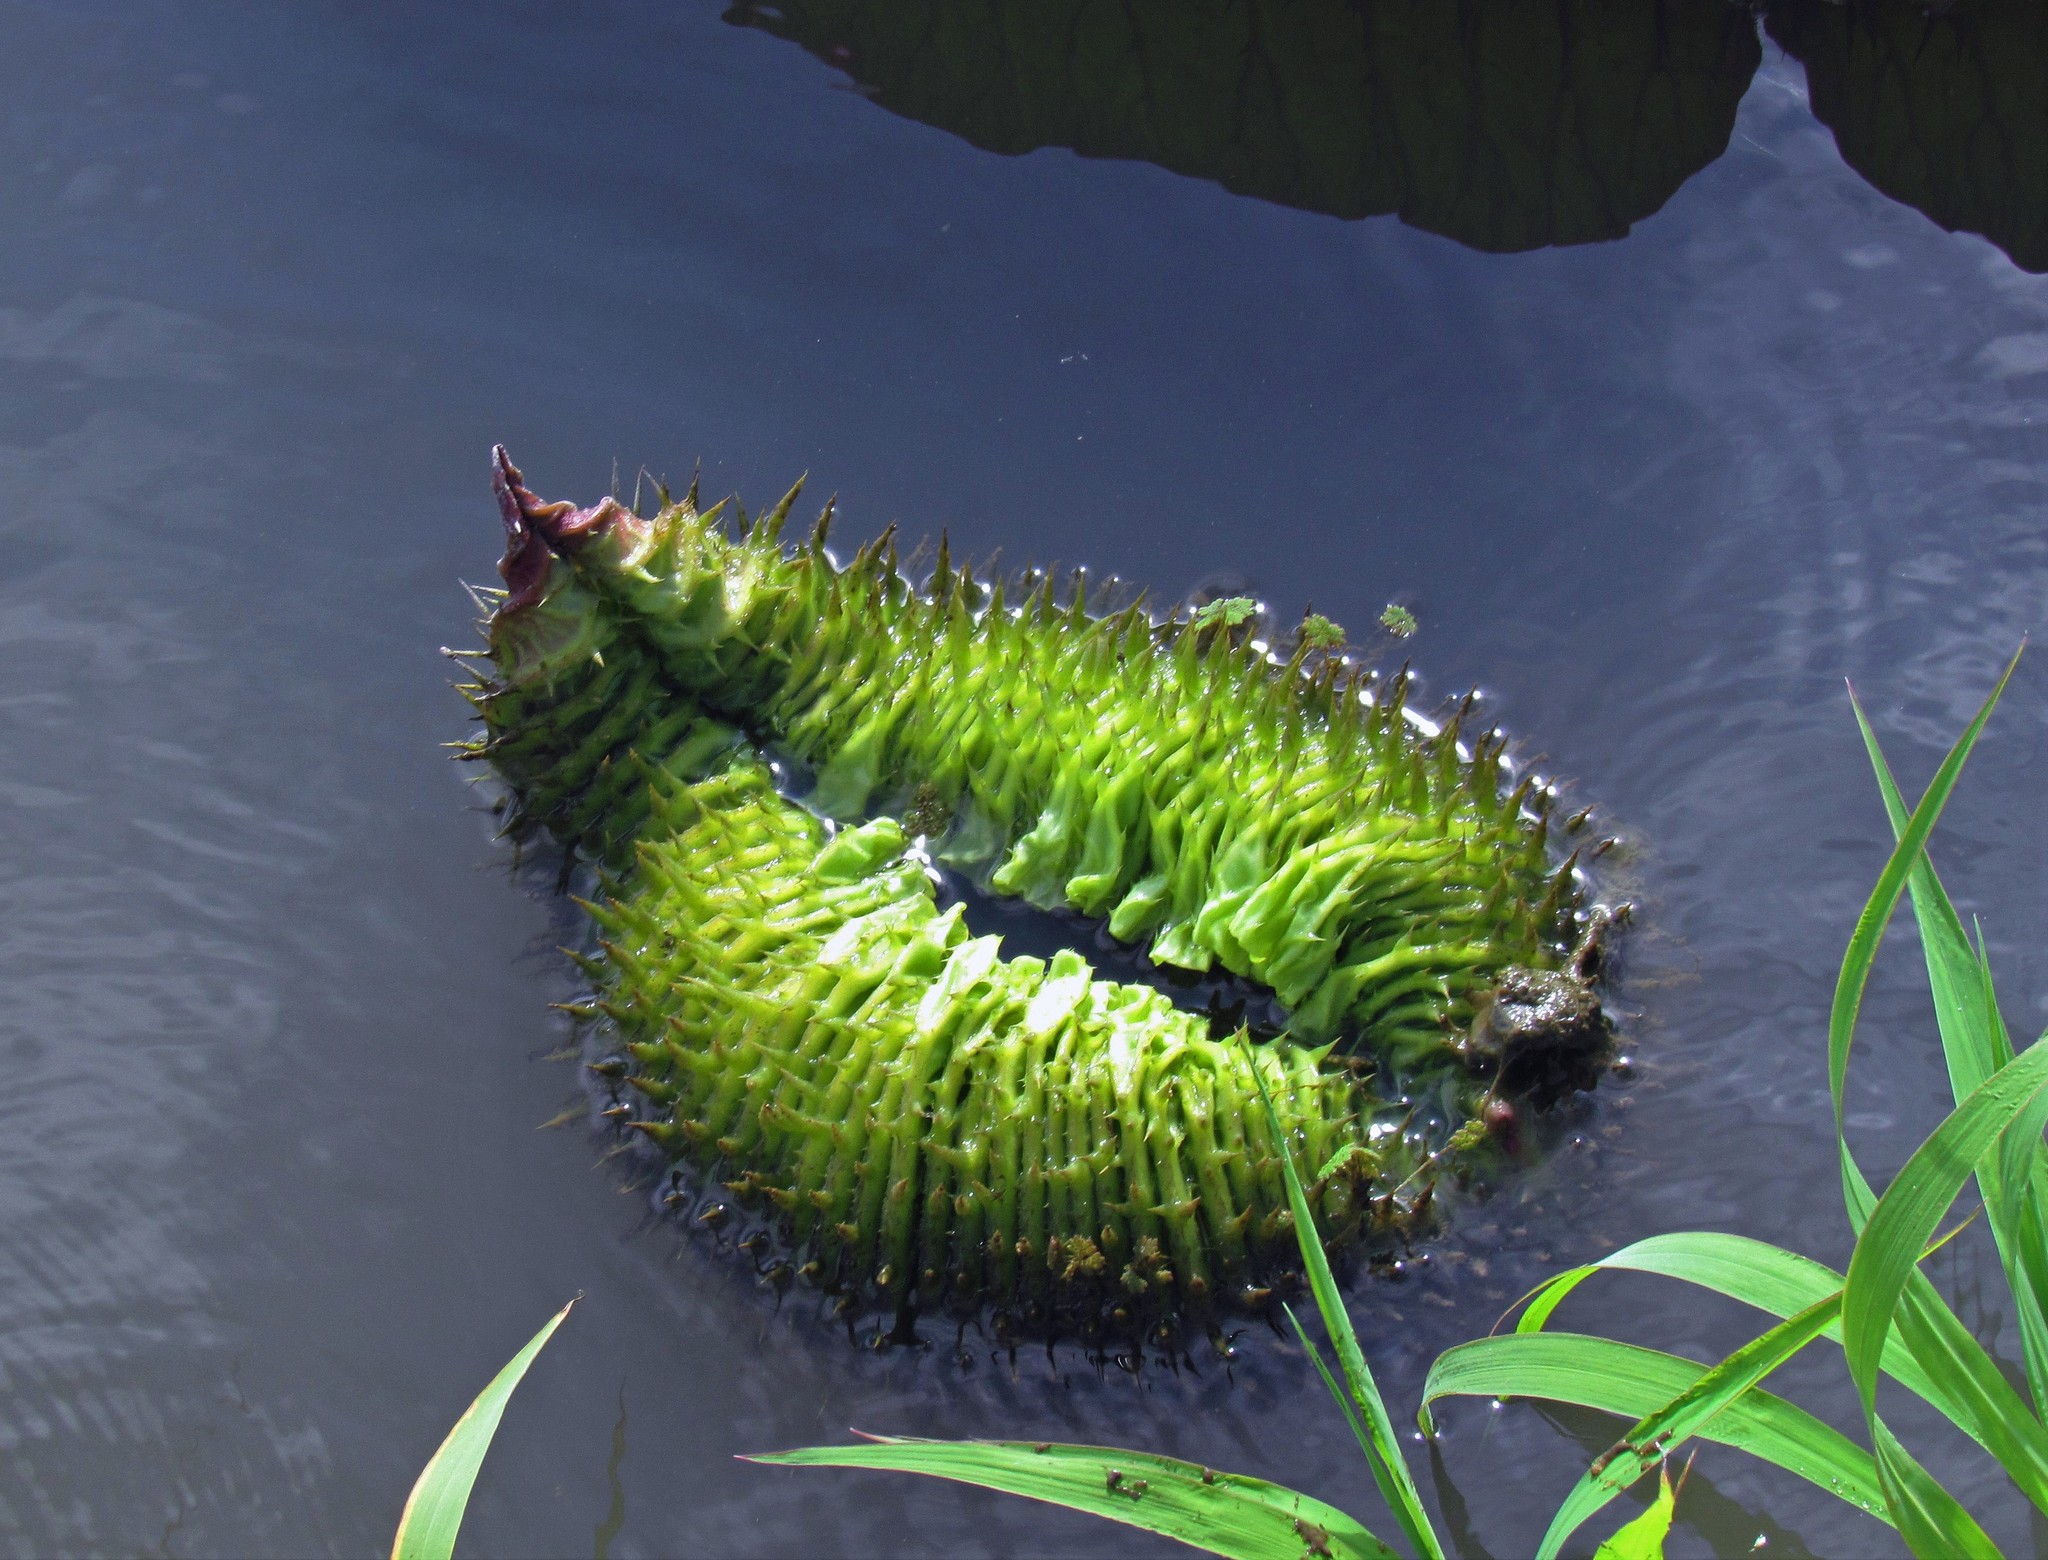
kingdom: Plantae
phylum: Tracheophyta
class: Magnoliopsida
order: Nymphaeales
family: Nymphaeaceae
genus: Victoria
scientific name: Victoria cruziana
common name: Santa cruz water-lily
